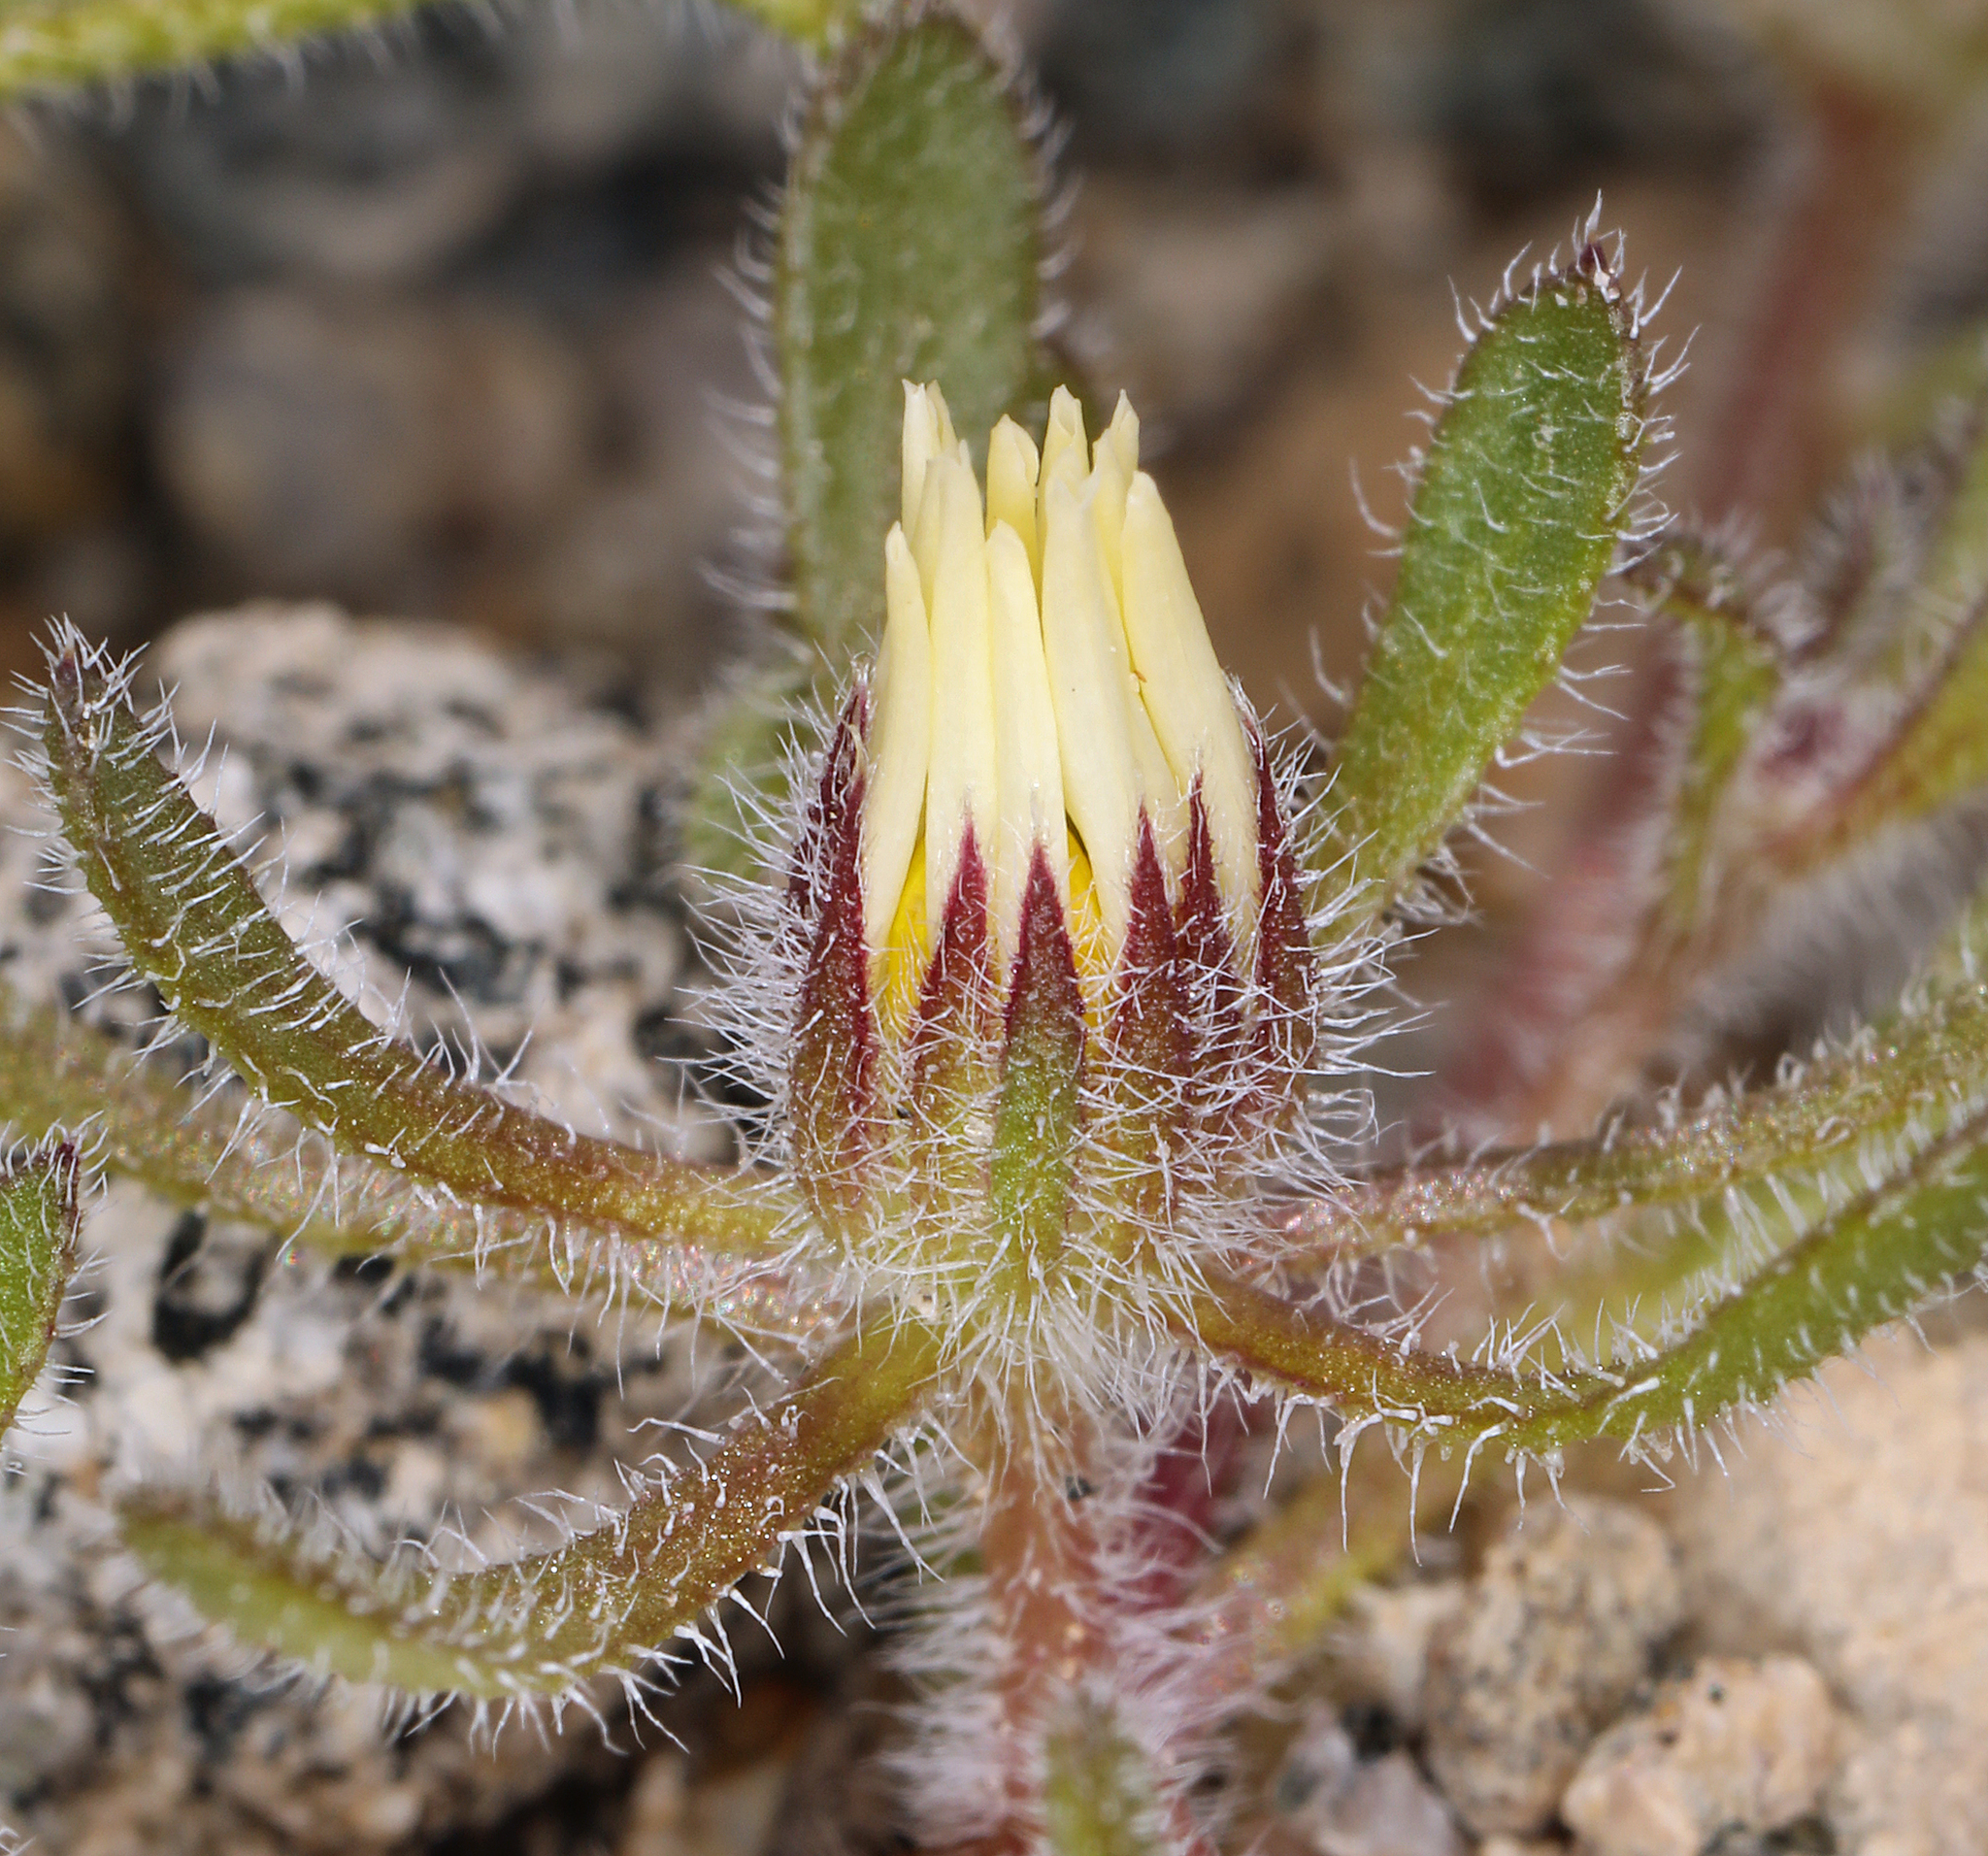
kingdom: Plantae
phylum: Tracheophyta
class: Magnoliopsida
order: Asterales
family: Asteraceae
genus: Monoptilon
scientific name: Monoptilon bellioides
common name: Bristly desertstar
